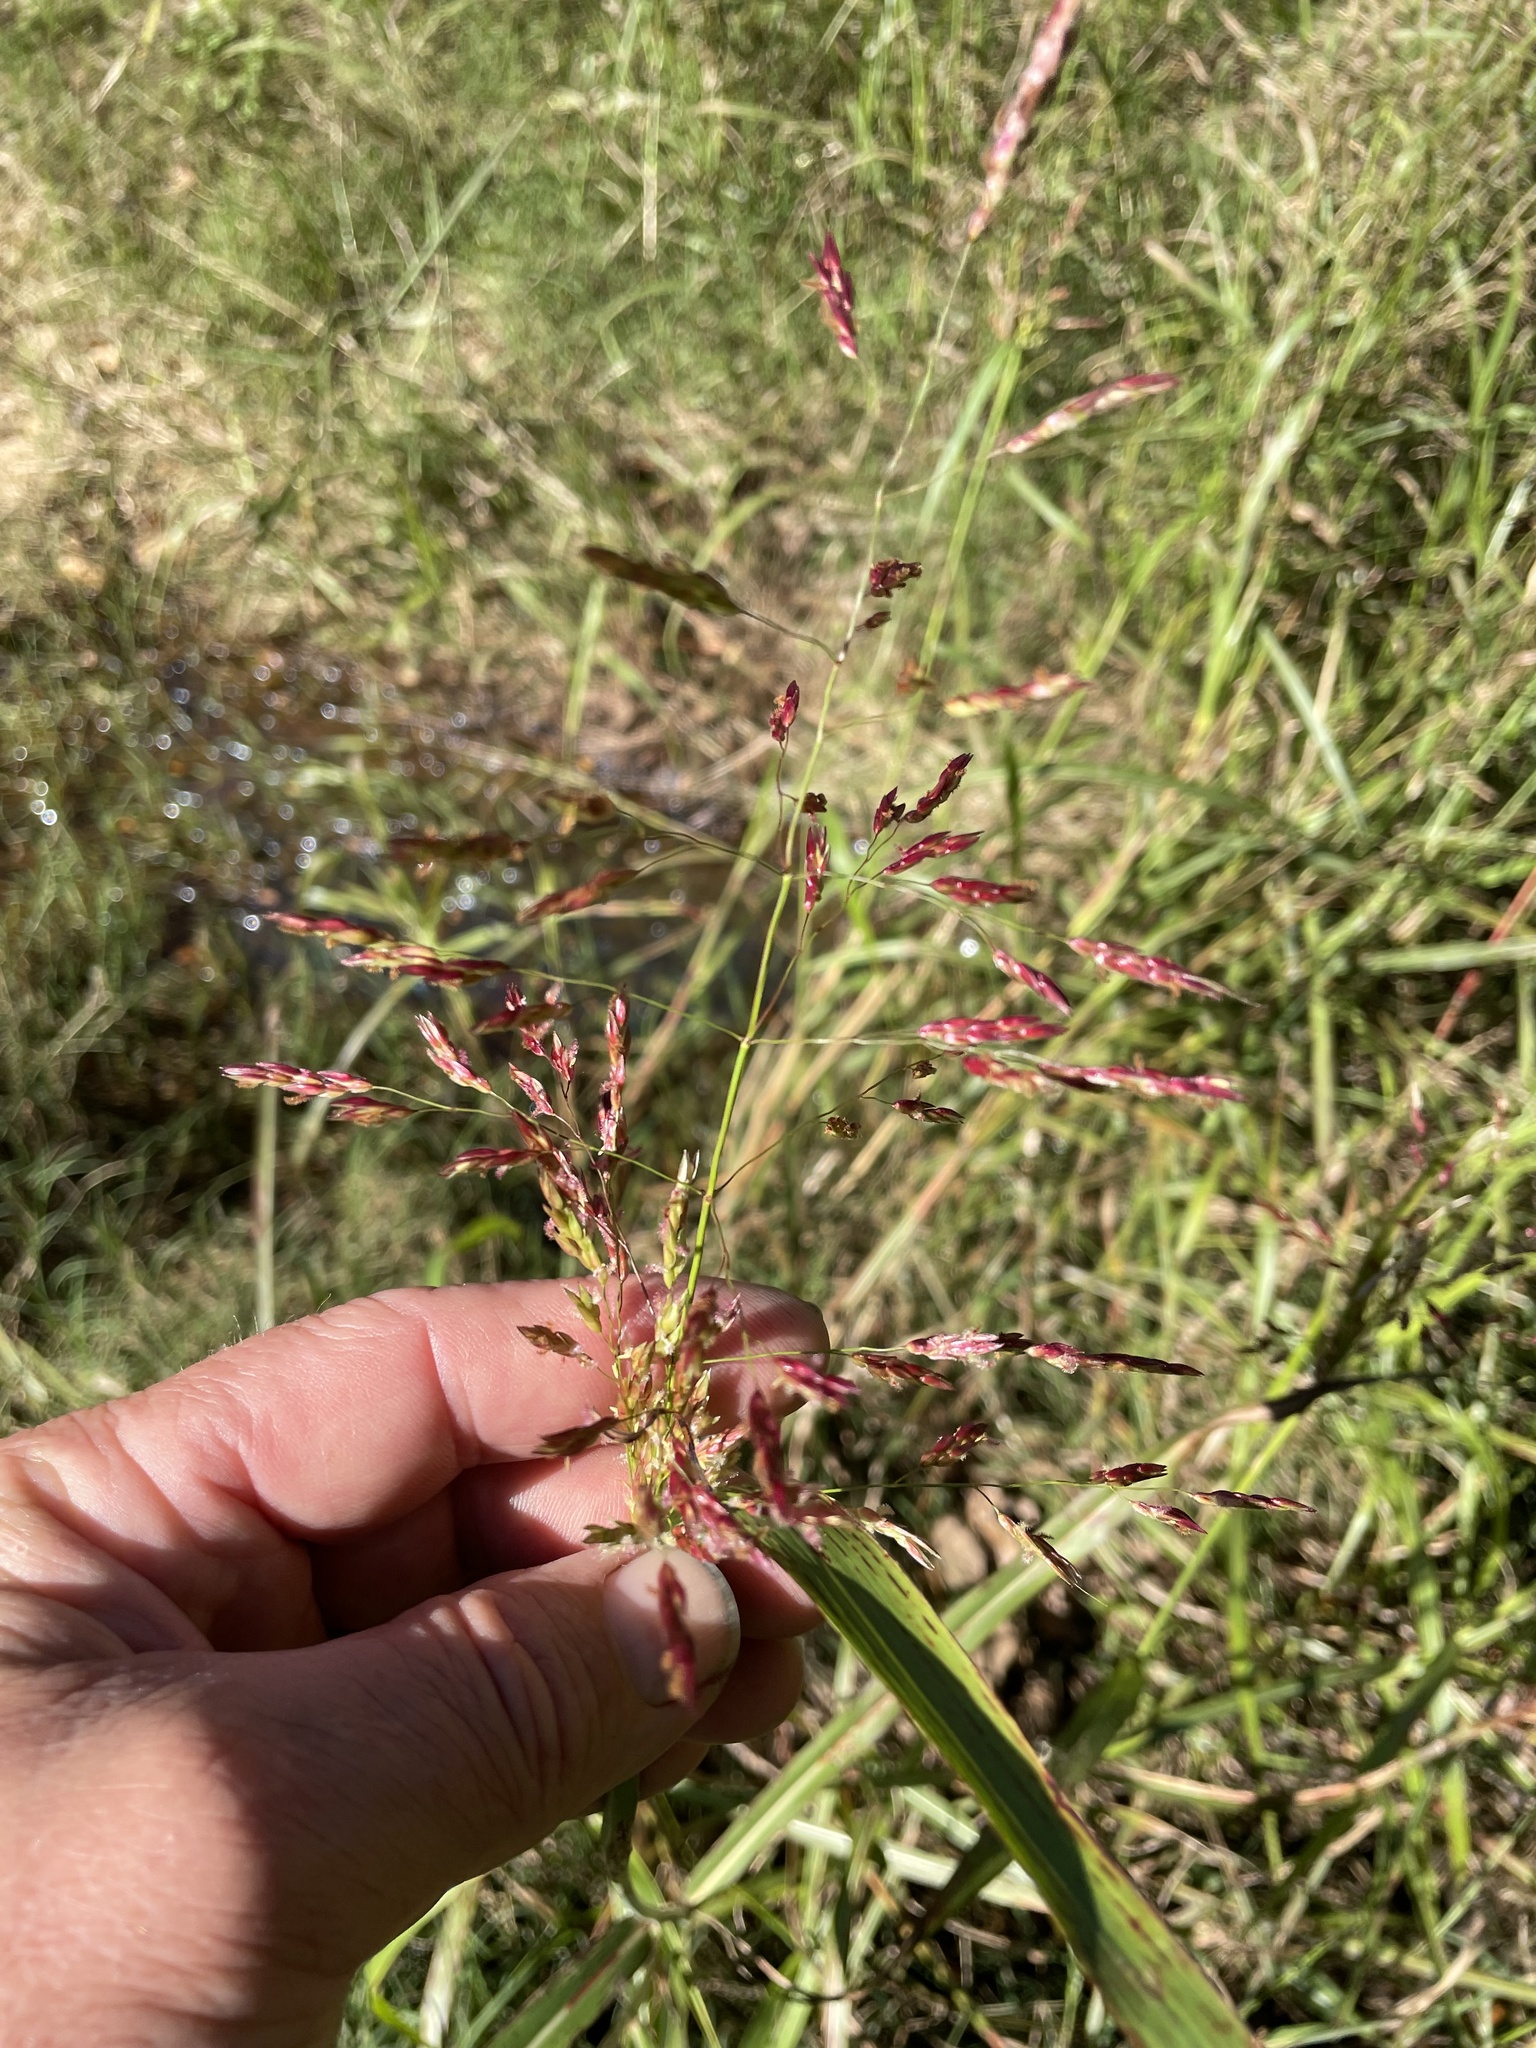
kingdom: Plantae
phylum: Tracheophyta
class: Liliopsida
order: Poales
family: Poaceae
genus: Sorghum
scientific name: Sorghum halepense
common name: Johnson-grass
